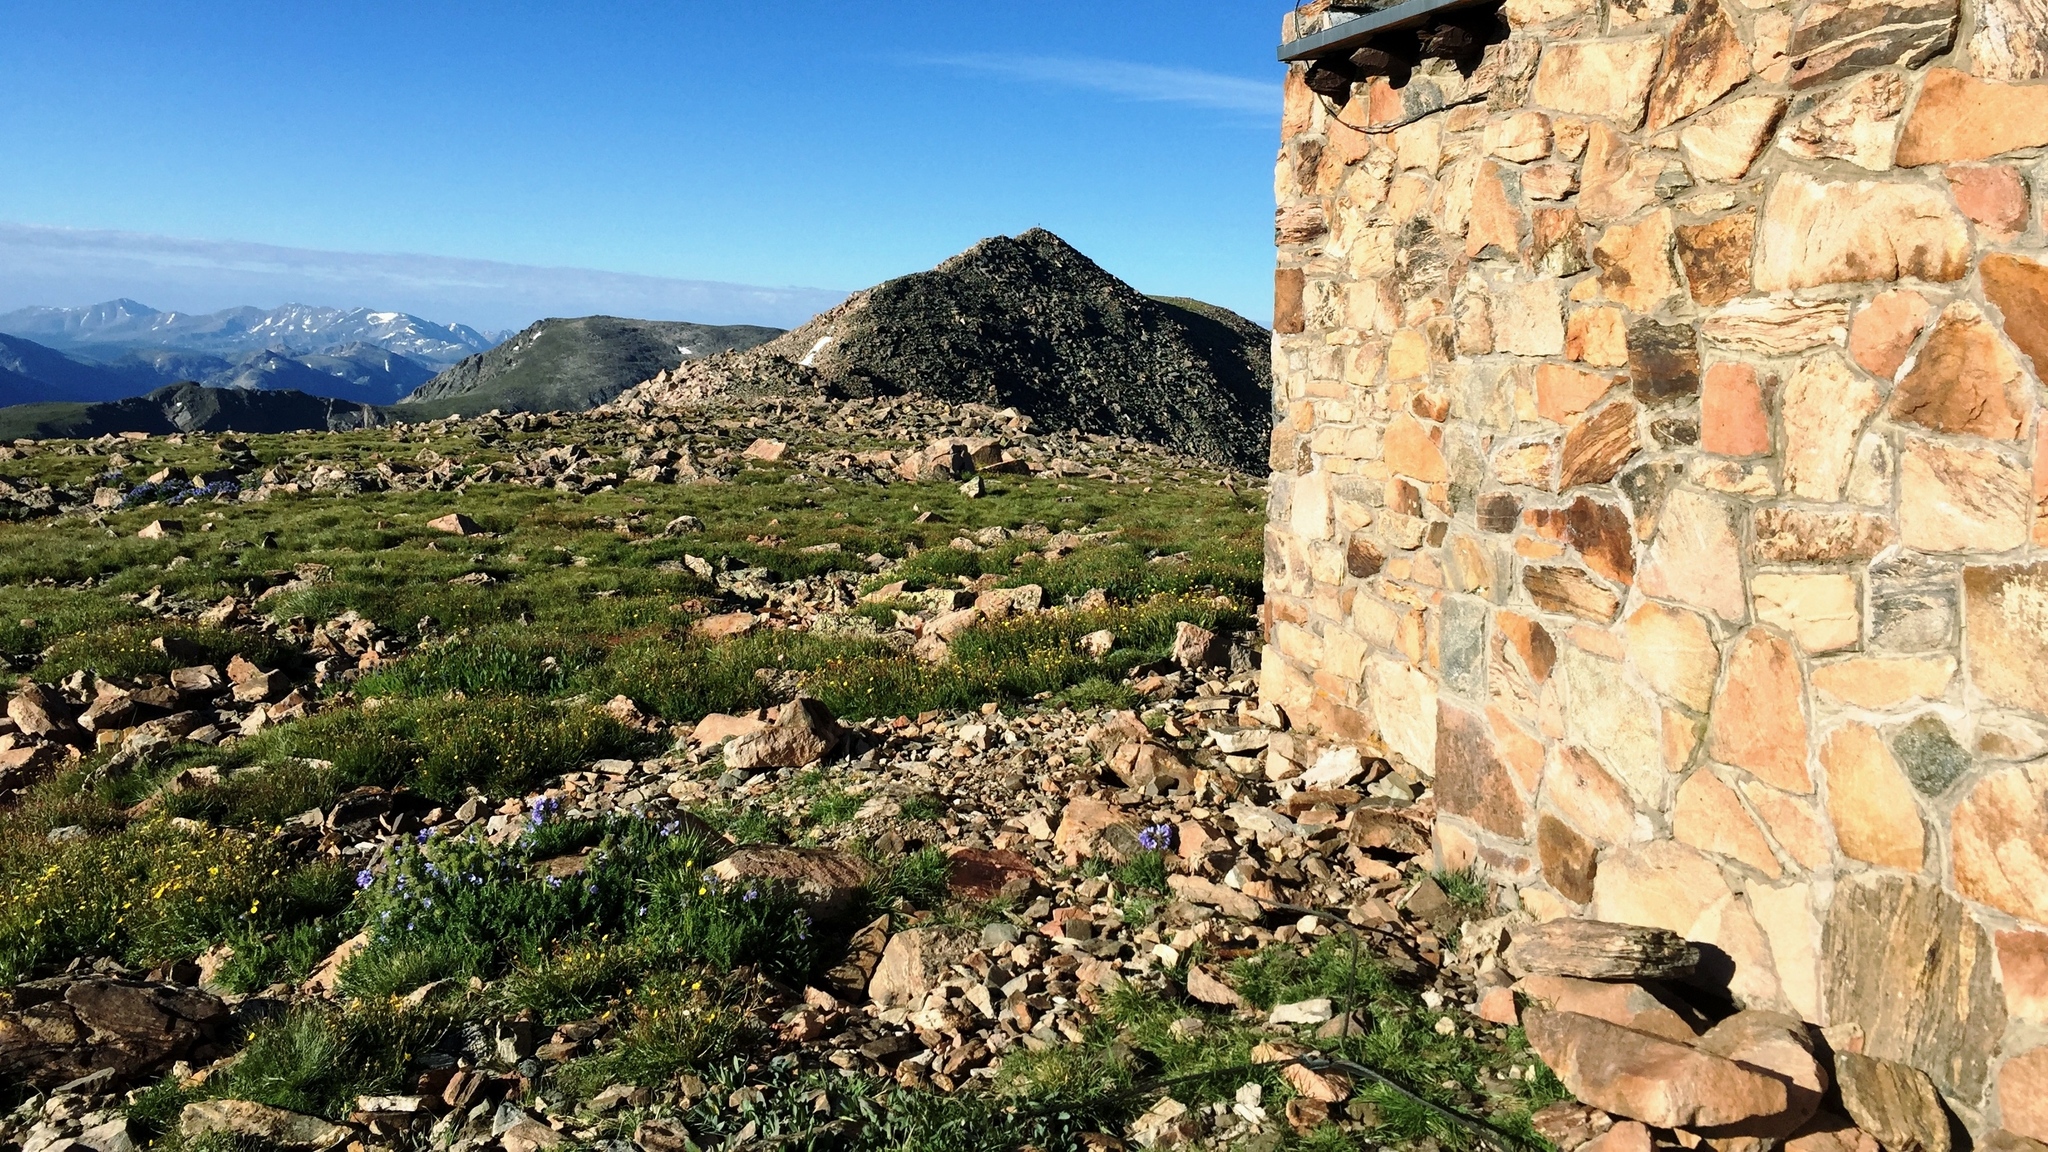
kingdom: Plantae
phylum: Tracheophyta
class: Magnoliopsida
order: Ericales
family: Polemoniaceae
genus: Polemonium
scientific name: Polemonium viscosum
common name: Skunk jacob's-ladder
